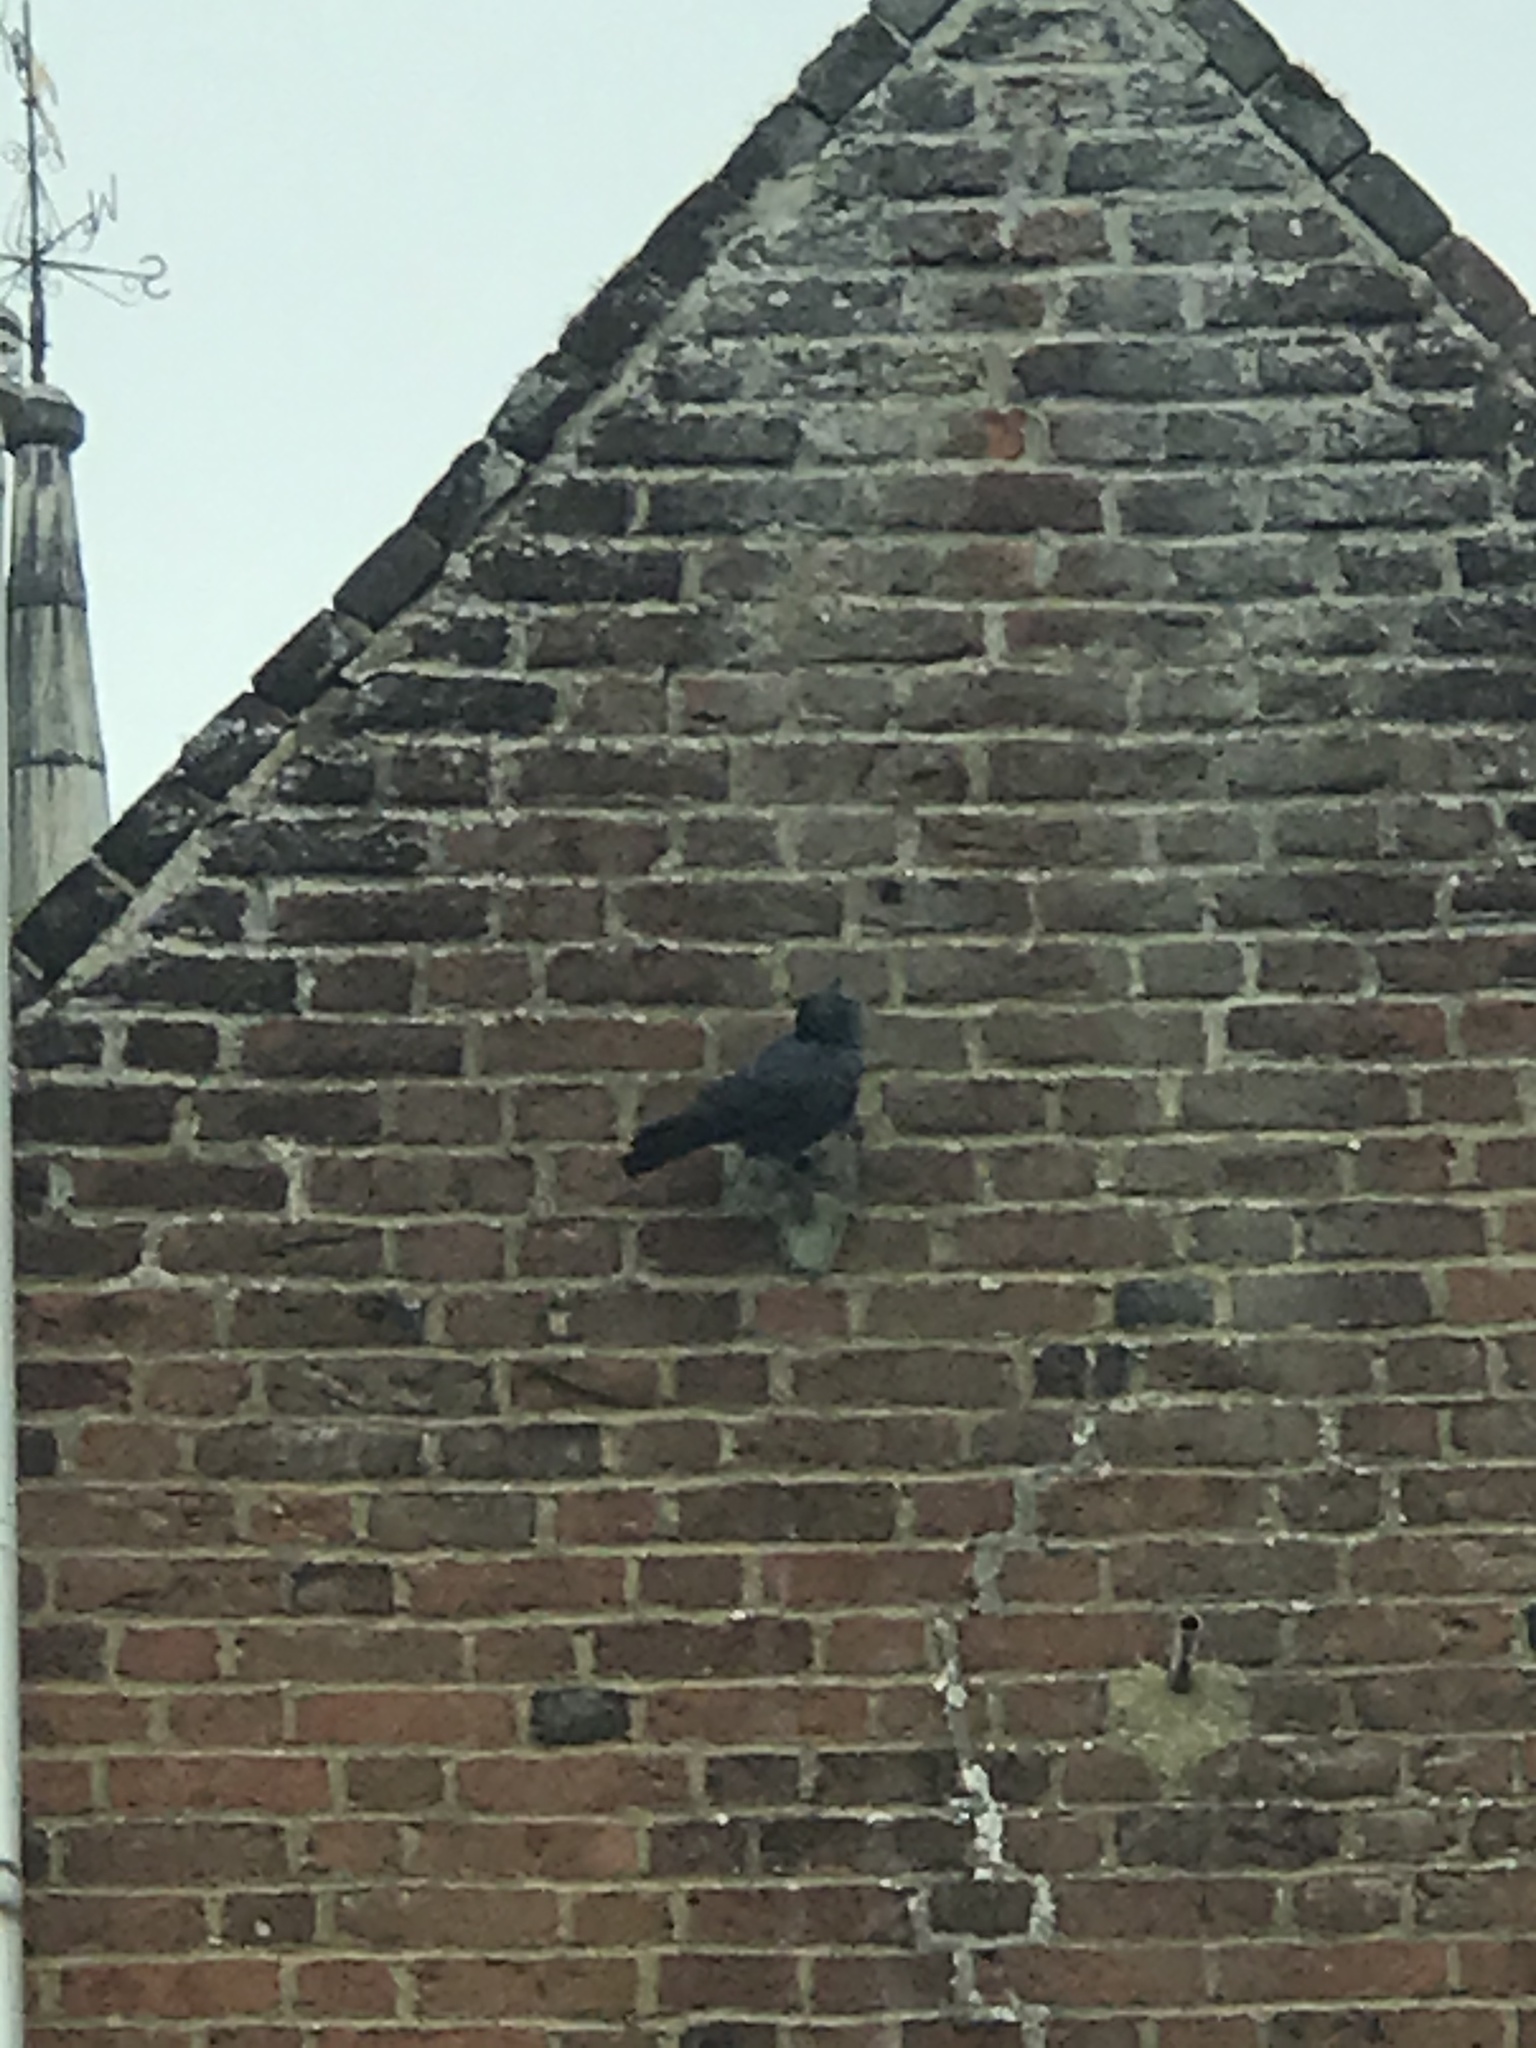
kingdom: Animalia
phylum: Chordata
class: Aves
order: Passeriformes
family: Corvidae
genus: Coloeus
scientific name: Coloeus monedula
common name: Western jackdaw
